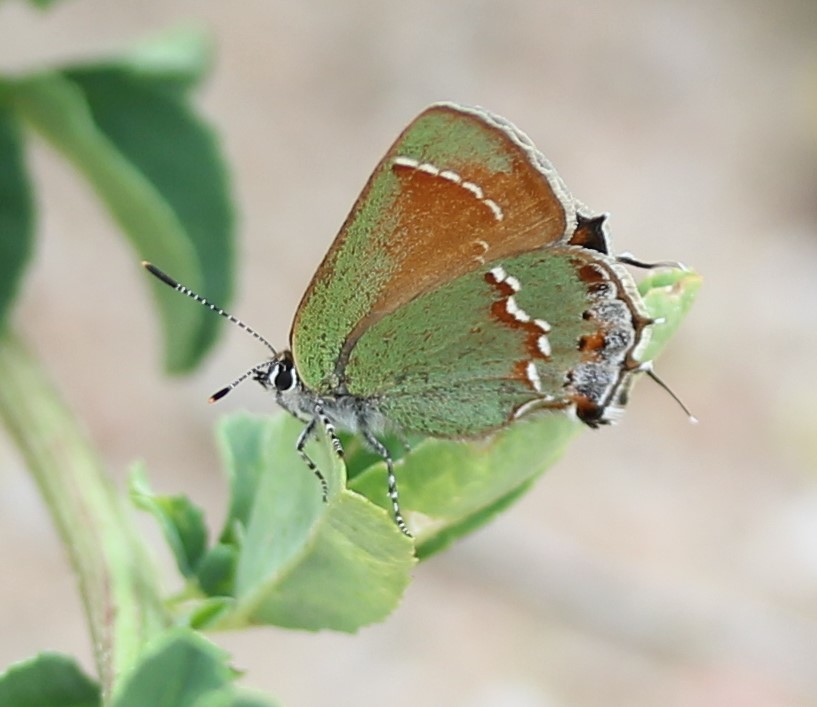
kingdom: Animalia
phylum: Arthropoda
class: Insecta
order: Lepidoptera
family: Lycaenidae
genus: Mitoura
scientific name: Mitoura siva
